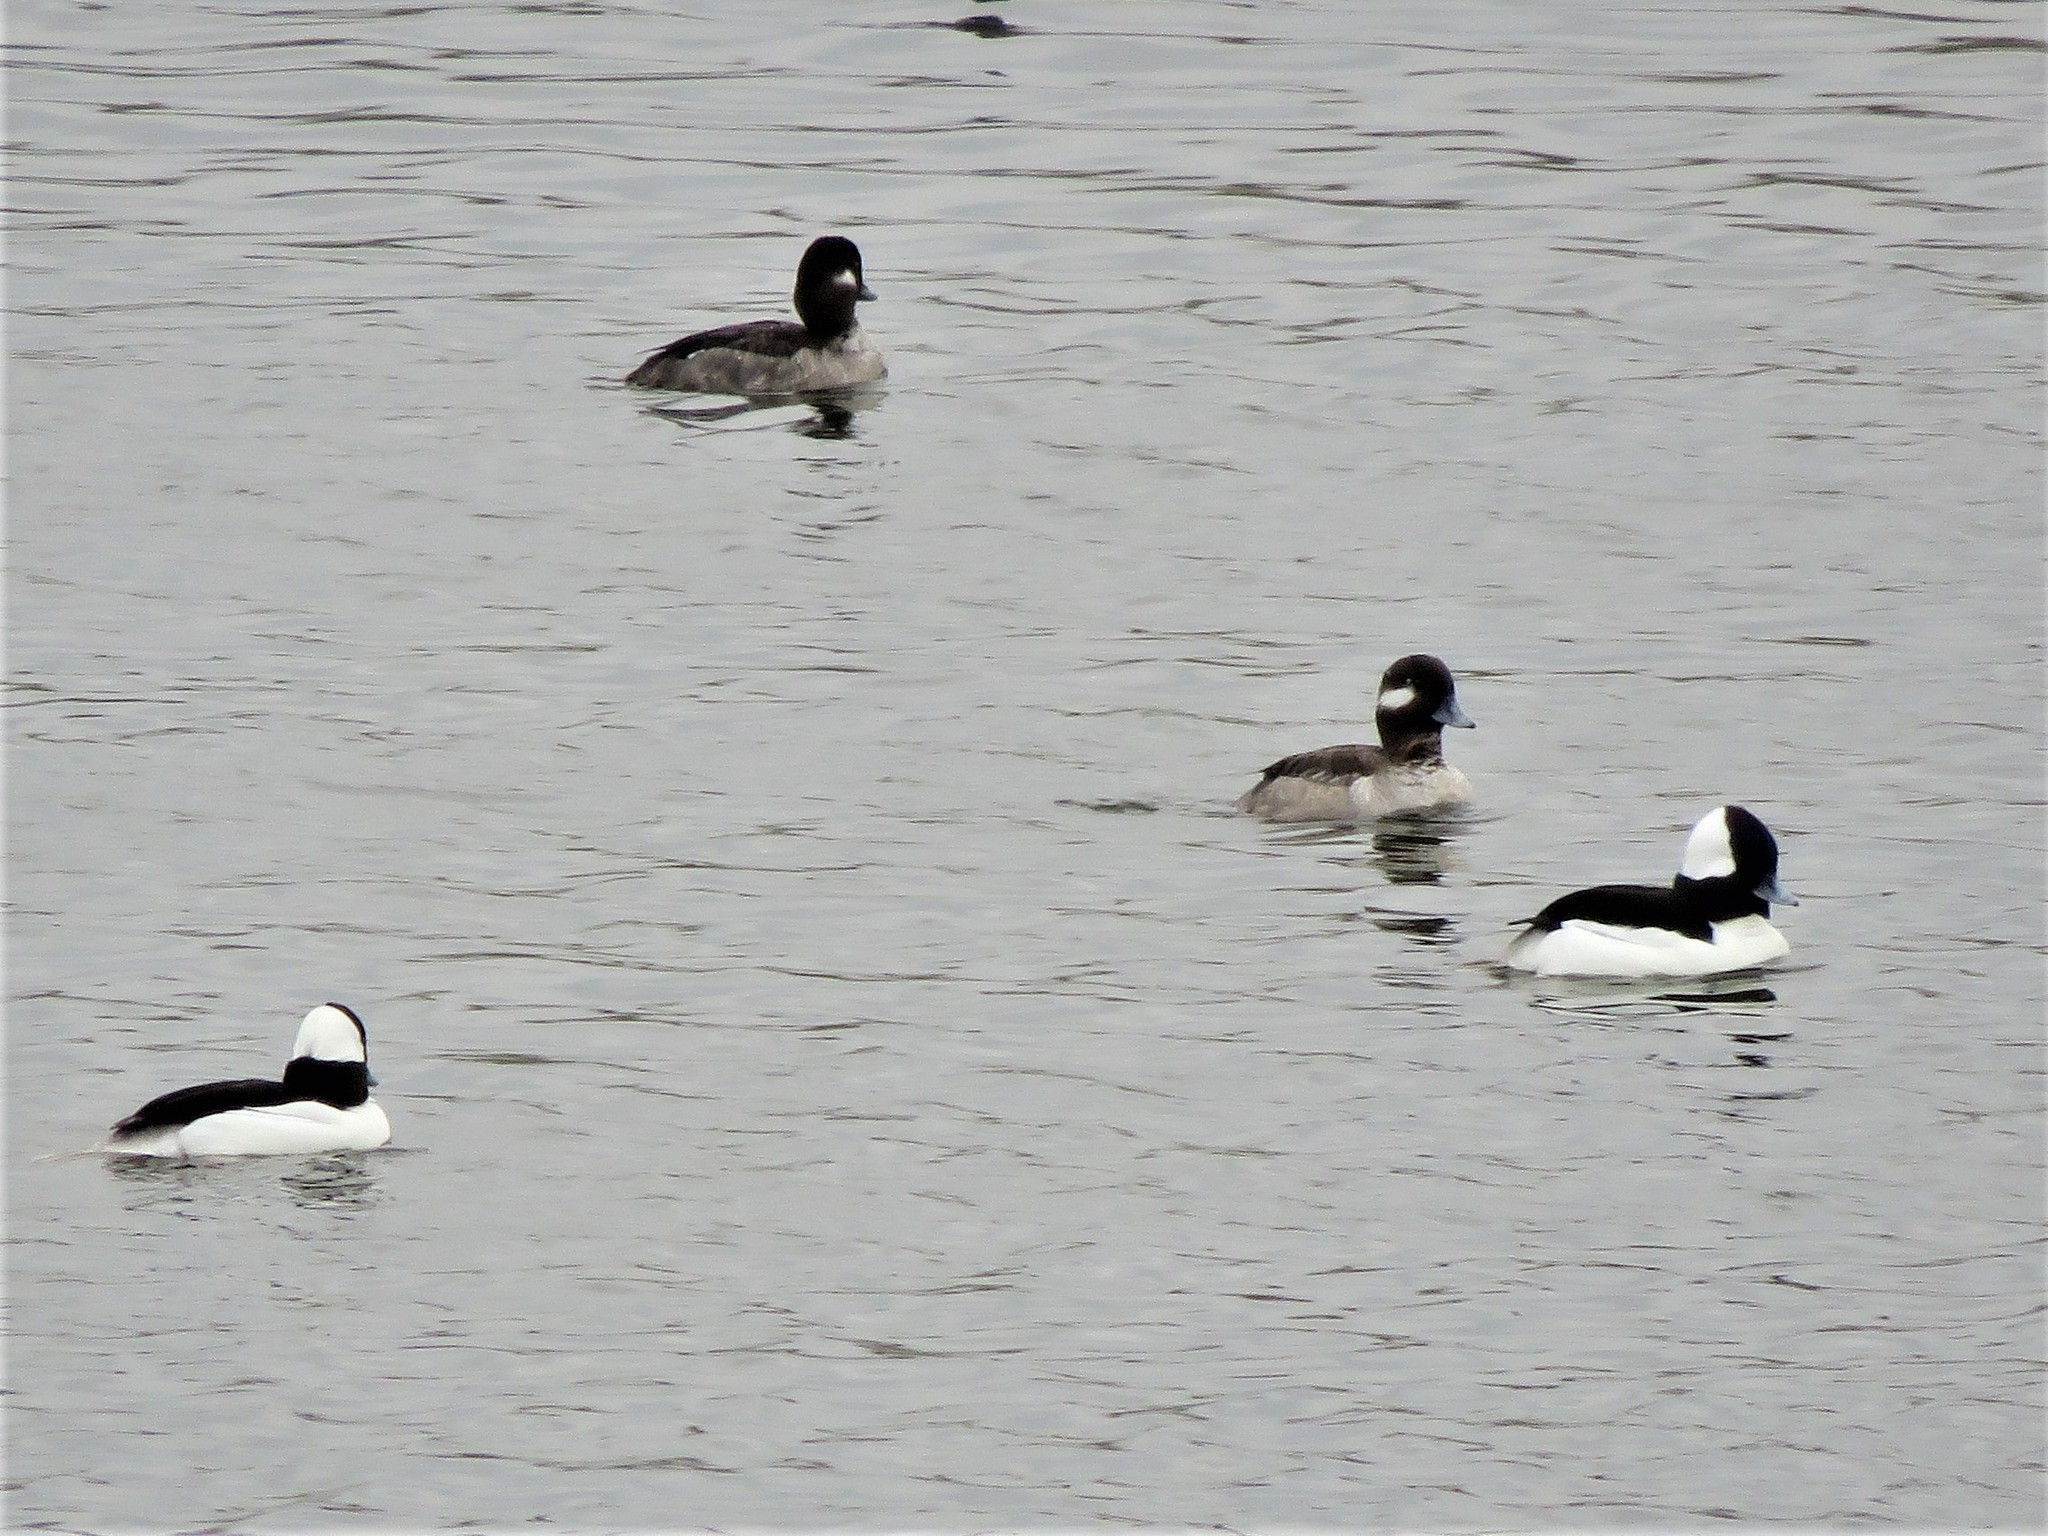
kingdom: Animalia
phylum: Chordata
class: Aves
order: Anseriformes
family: Anatidae
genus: Bucephala
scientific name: Bucephala albeola
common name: Bufflehead
